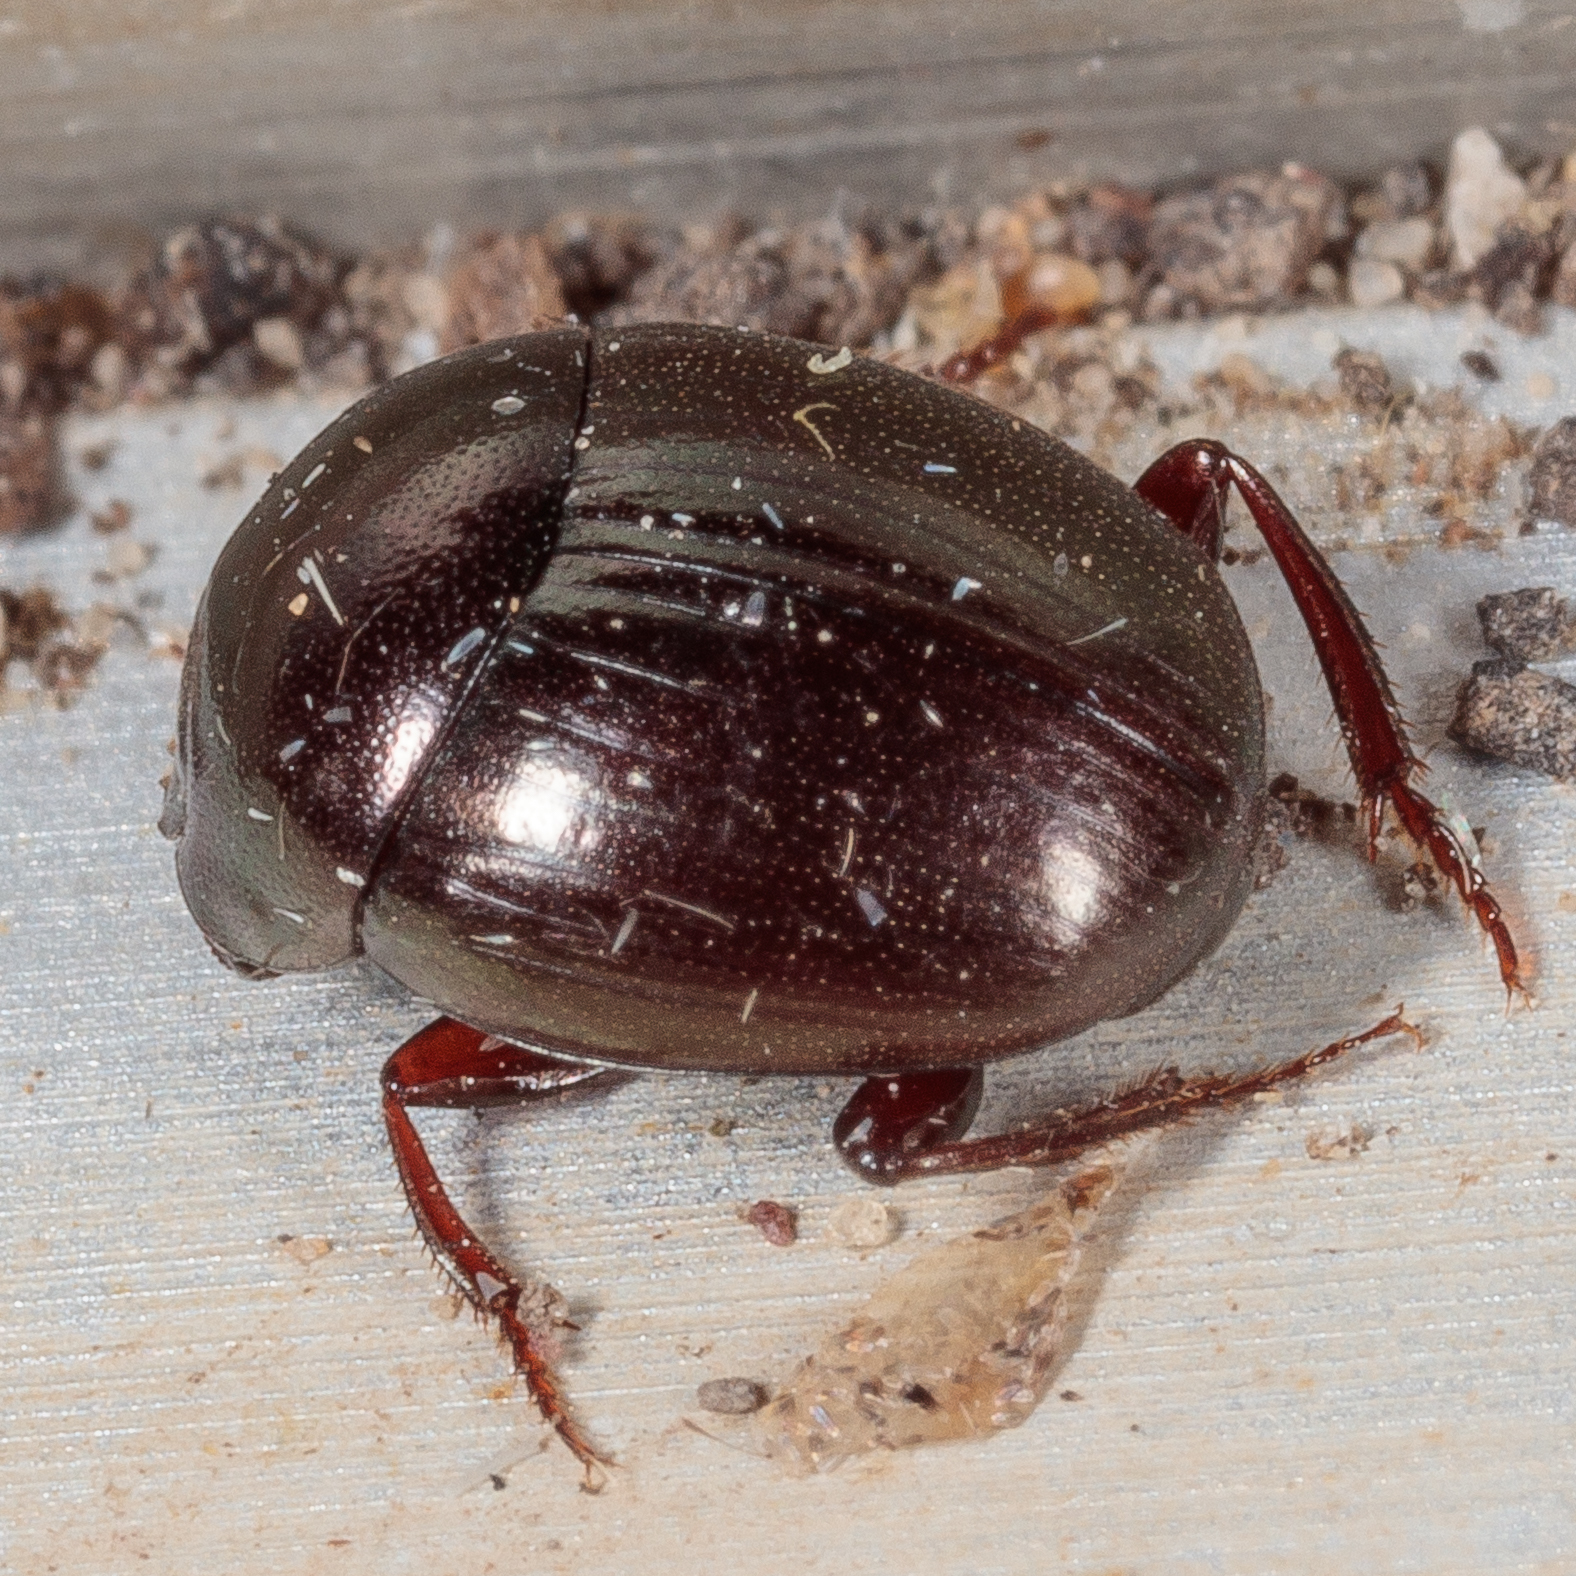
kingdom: Animalia
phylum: Arthropoda
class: Insecta
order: Coleoptera
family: Scarabaeidae
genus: Pseudocanthon
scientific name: Pseudocanthon perplexus
